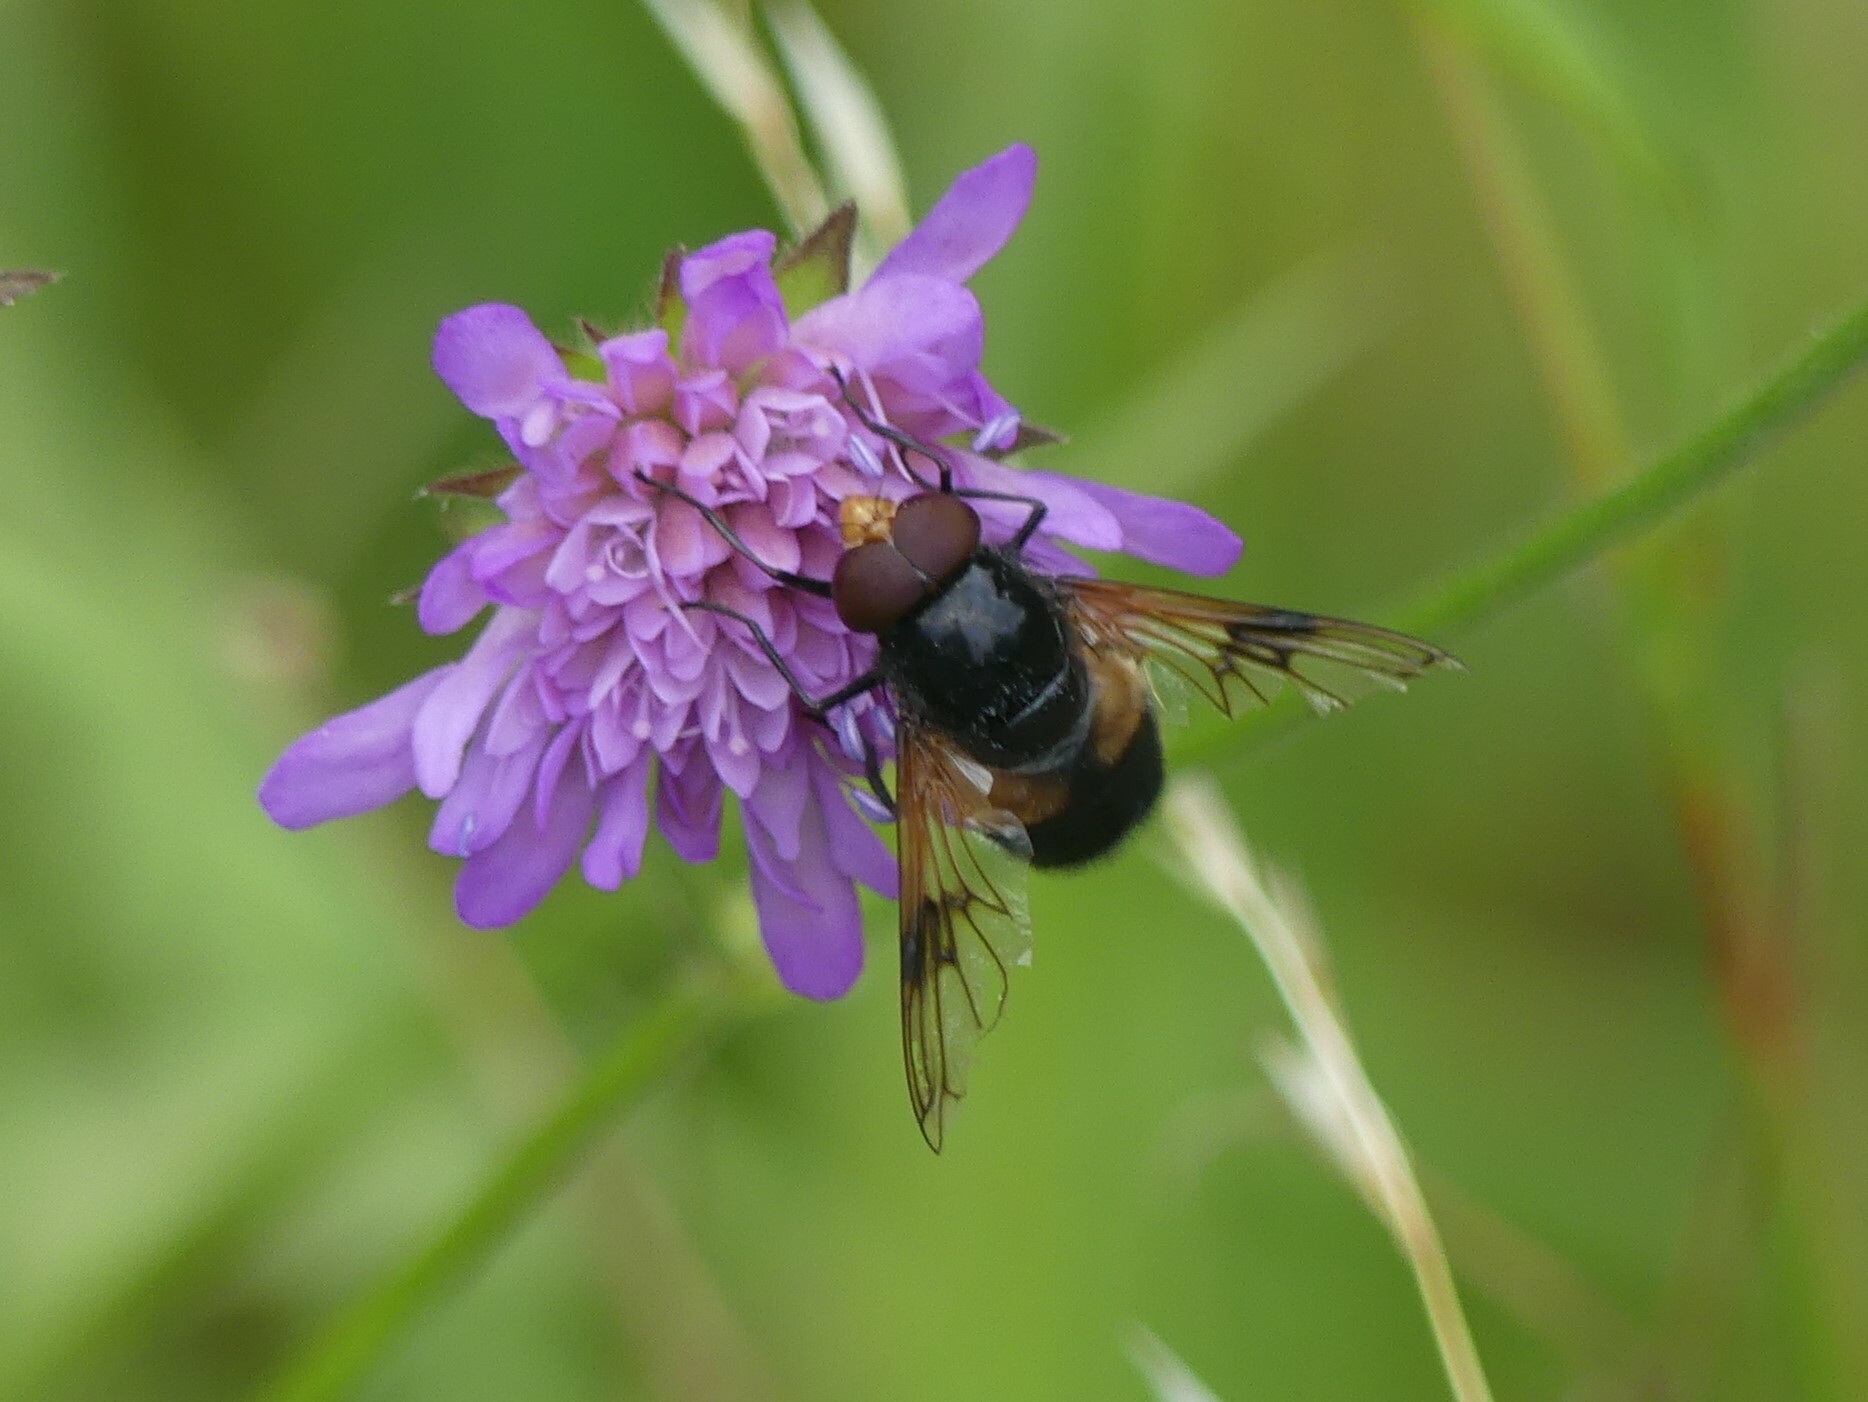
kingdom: Animalia
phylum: Arthropoda
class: Insecta
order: Diptera
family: Syrphidae
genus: Volucella
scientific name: Volucella pellucens
